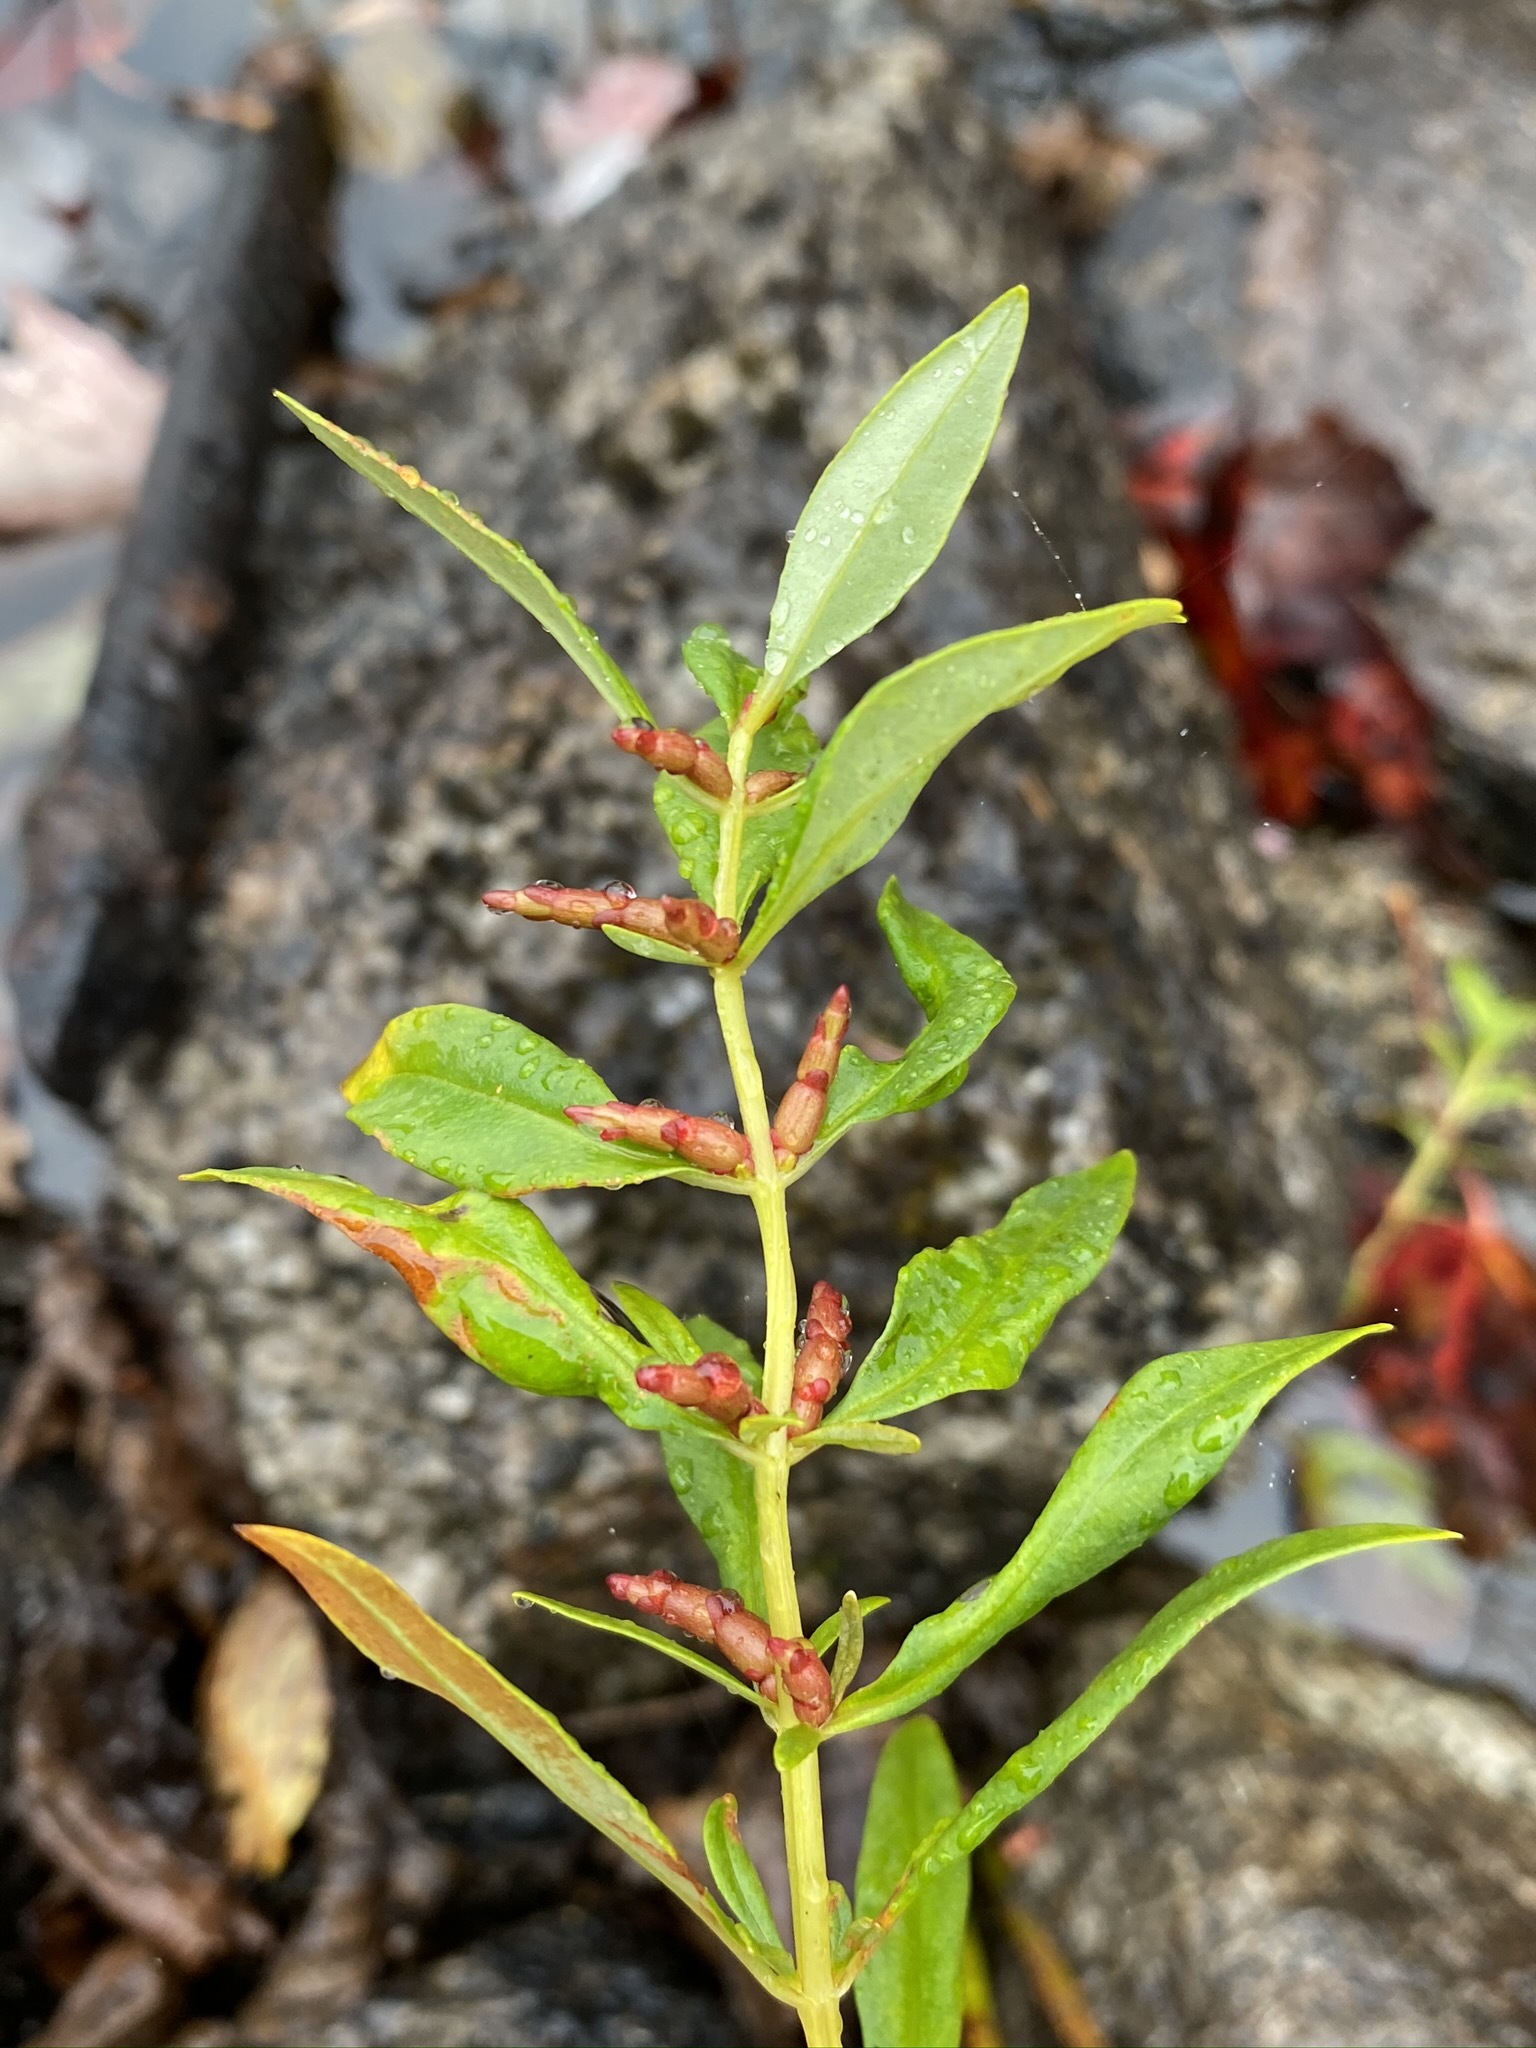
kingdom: Plantae
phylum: Tracheophyta
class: Magnoliopsida
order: Ericales
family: Primulaceae
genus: Lysimachia
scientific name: Lysimachia terrestris
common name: Lake loosestrife
